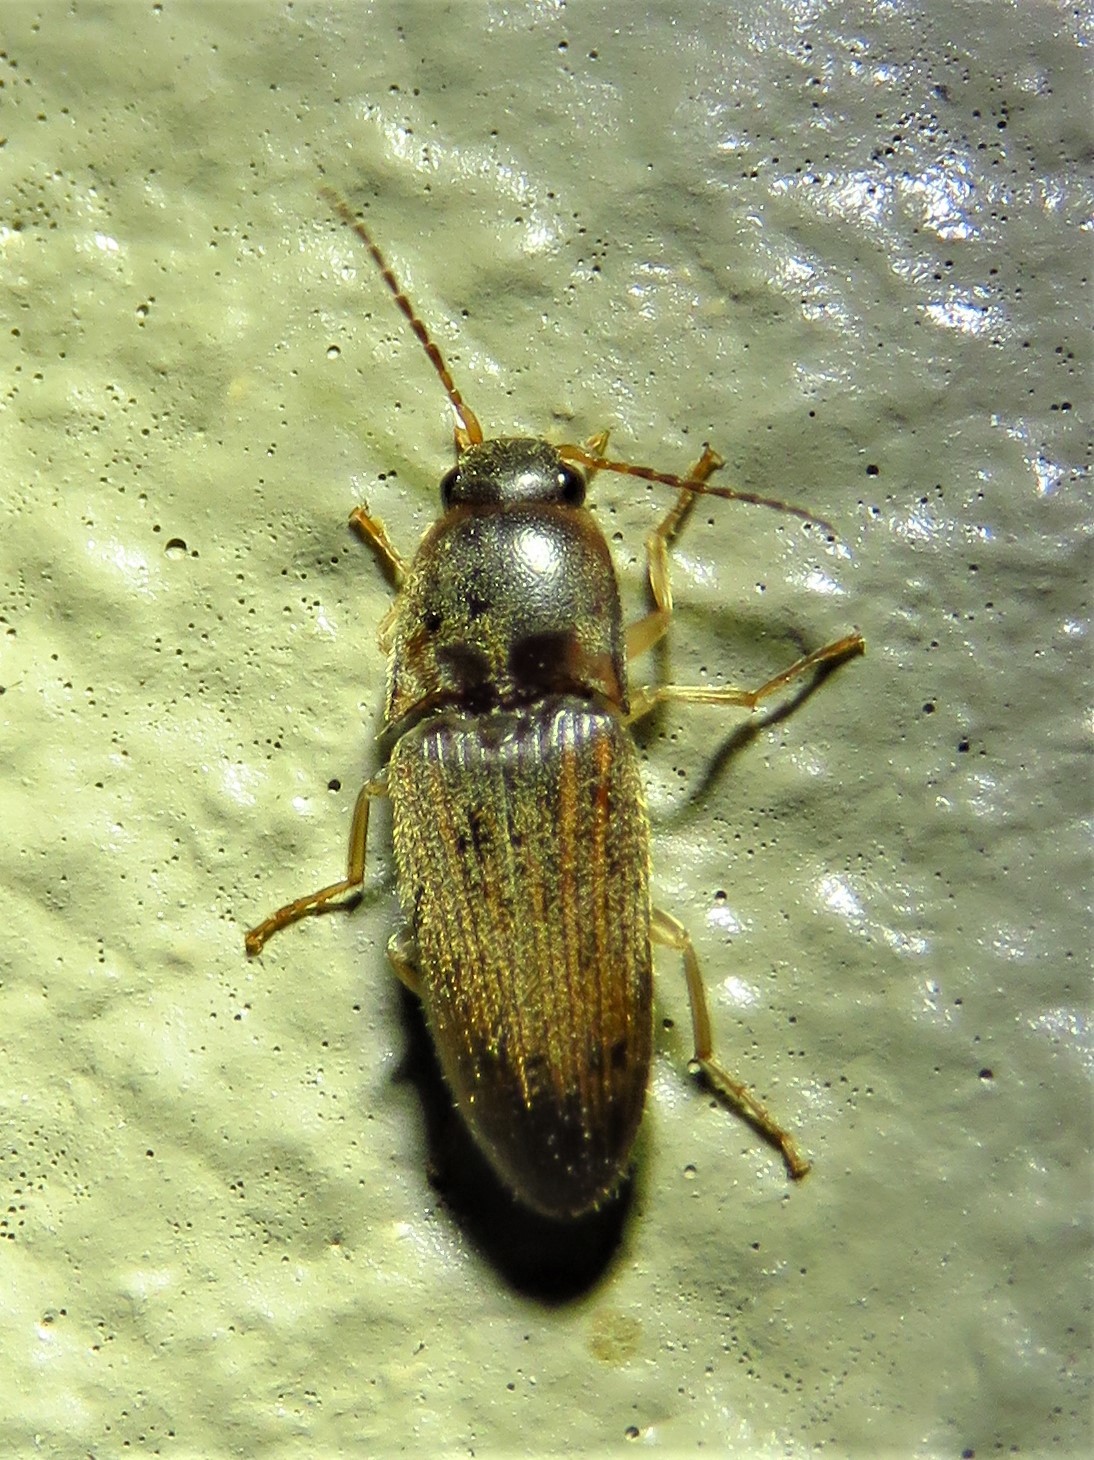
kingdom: Animalia
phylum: Arthropoda
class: Insecta
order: Coleoptera
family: Elateridae
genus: Monocrepidius
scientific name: Monocrepidius
